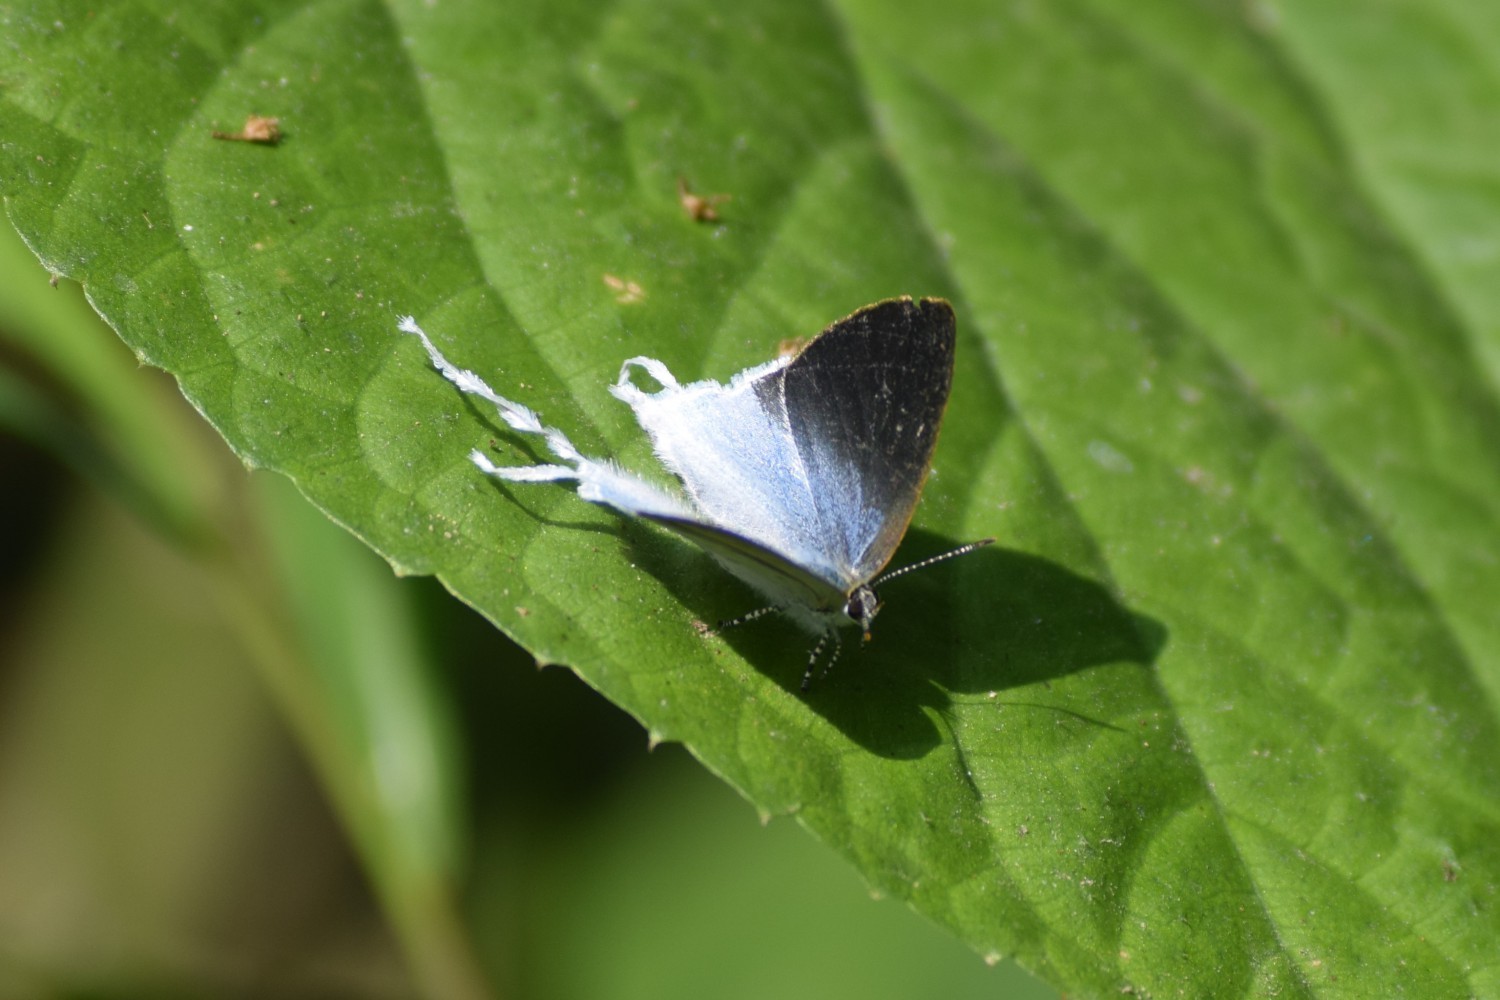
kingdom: Animalia
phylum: Arthropoda
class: Insecta
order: Lepidoptera
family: Lycaenidae
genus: Zeltus
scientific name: Zeltus amasa
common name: Fluffy tit
